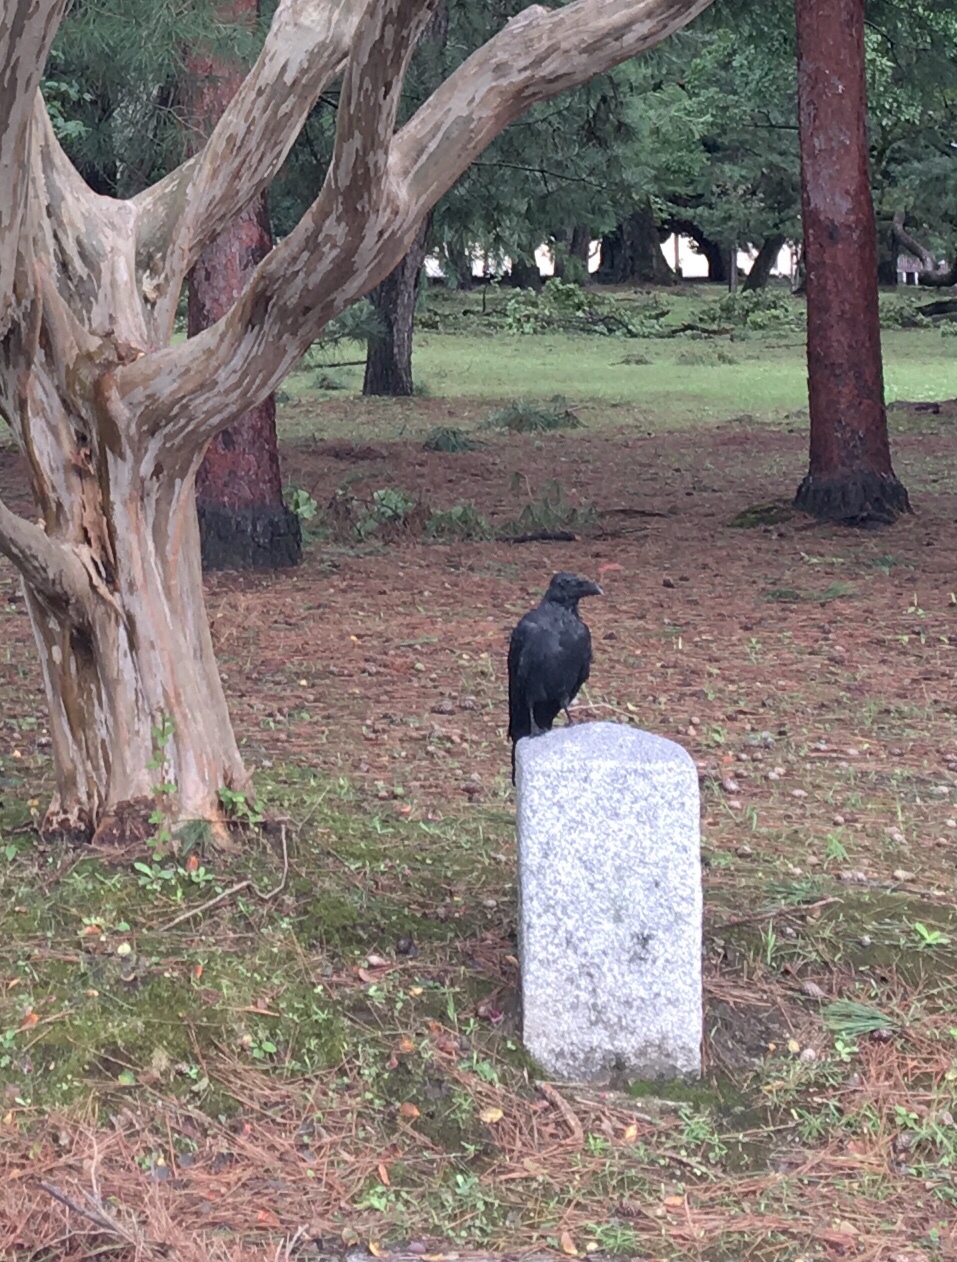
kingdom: Animalia
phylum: Chordata
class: Aves
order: Passeriformes
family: Corvidae
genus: Corvus
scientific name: Corvus macrorhynchos
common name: Large-billed crow
